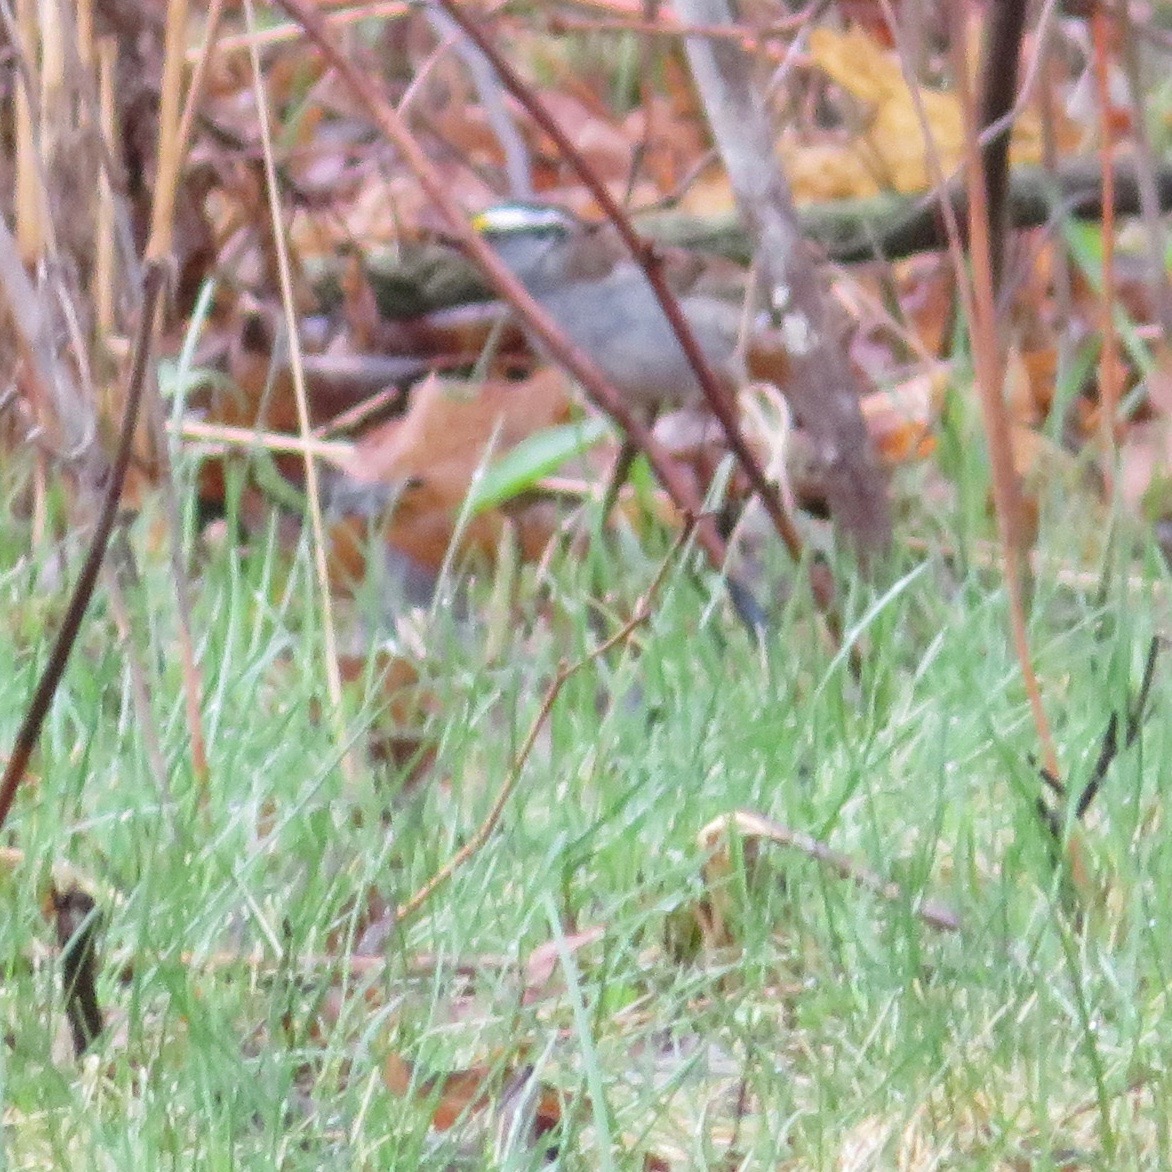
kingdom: Animalia
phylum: Chordata
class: Aves
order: Passeriformes
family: Passerellidae
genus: Zonotrichia
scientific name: Zonotrichia albicollis
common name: White-throated sparrow
